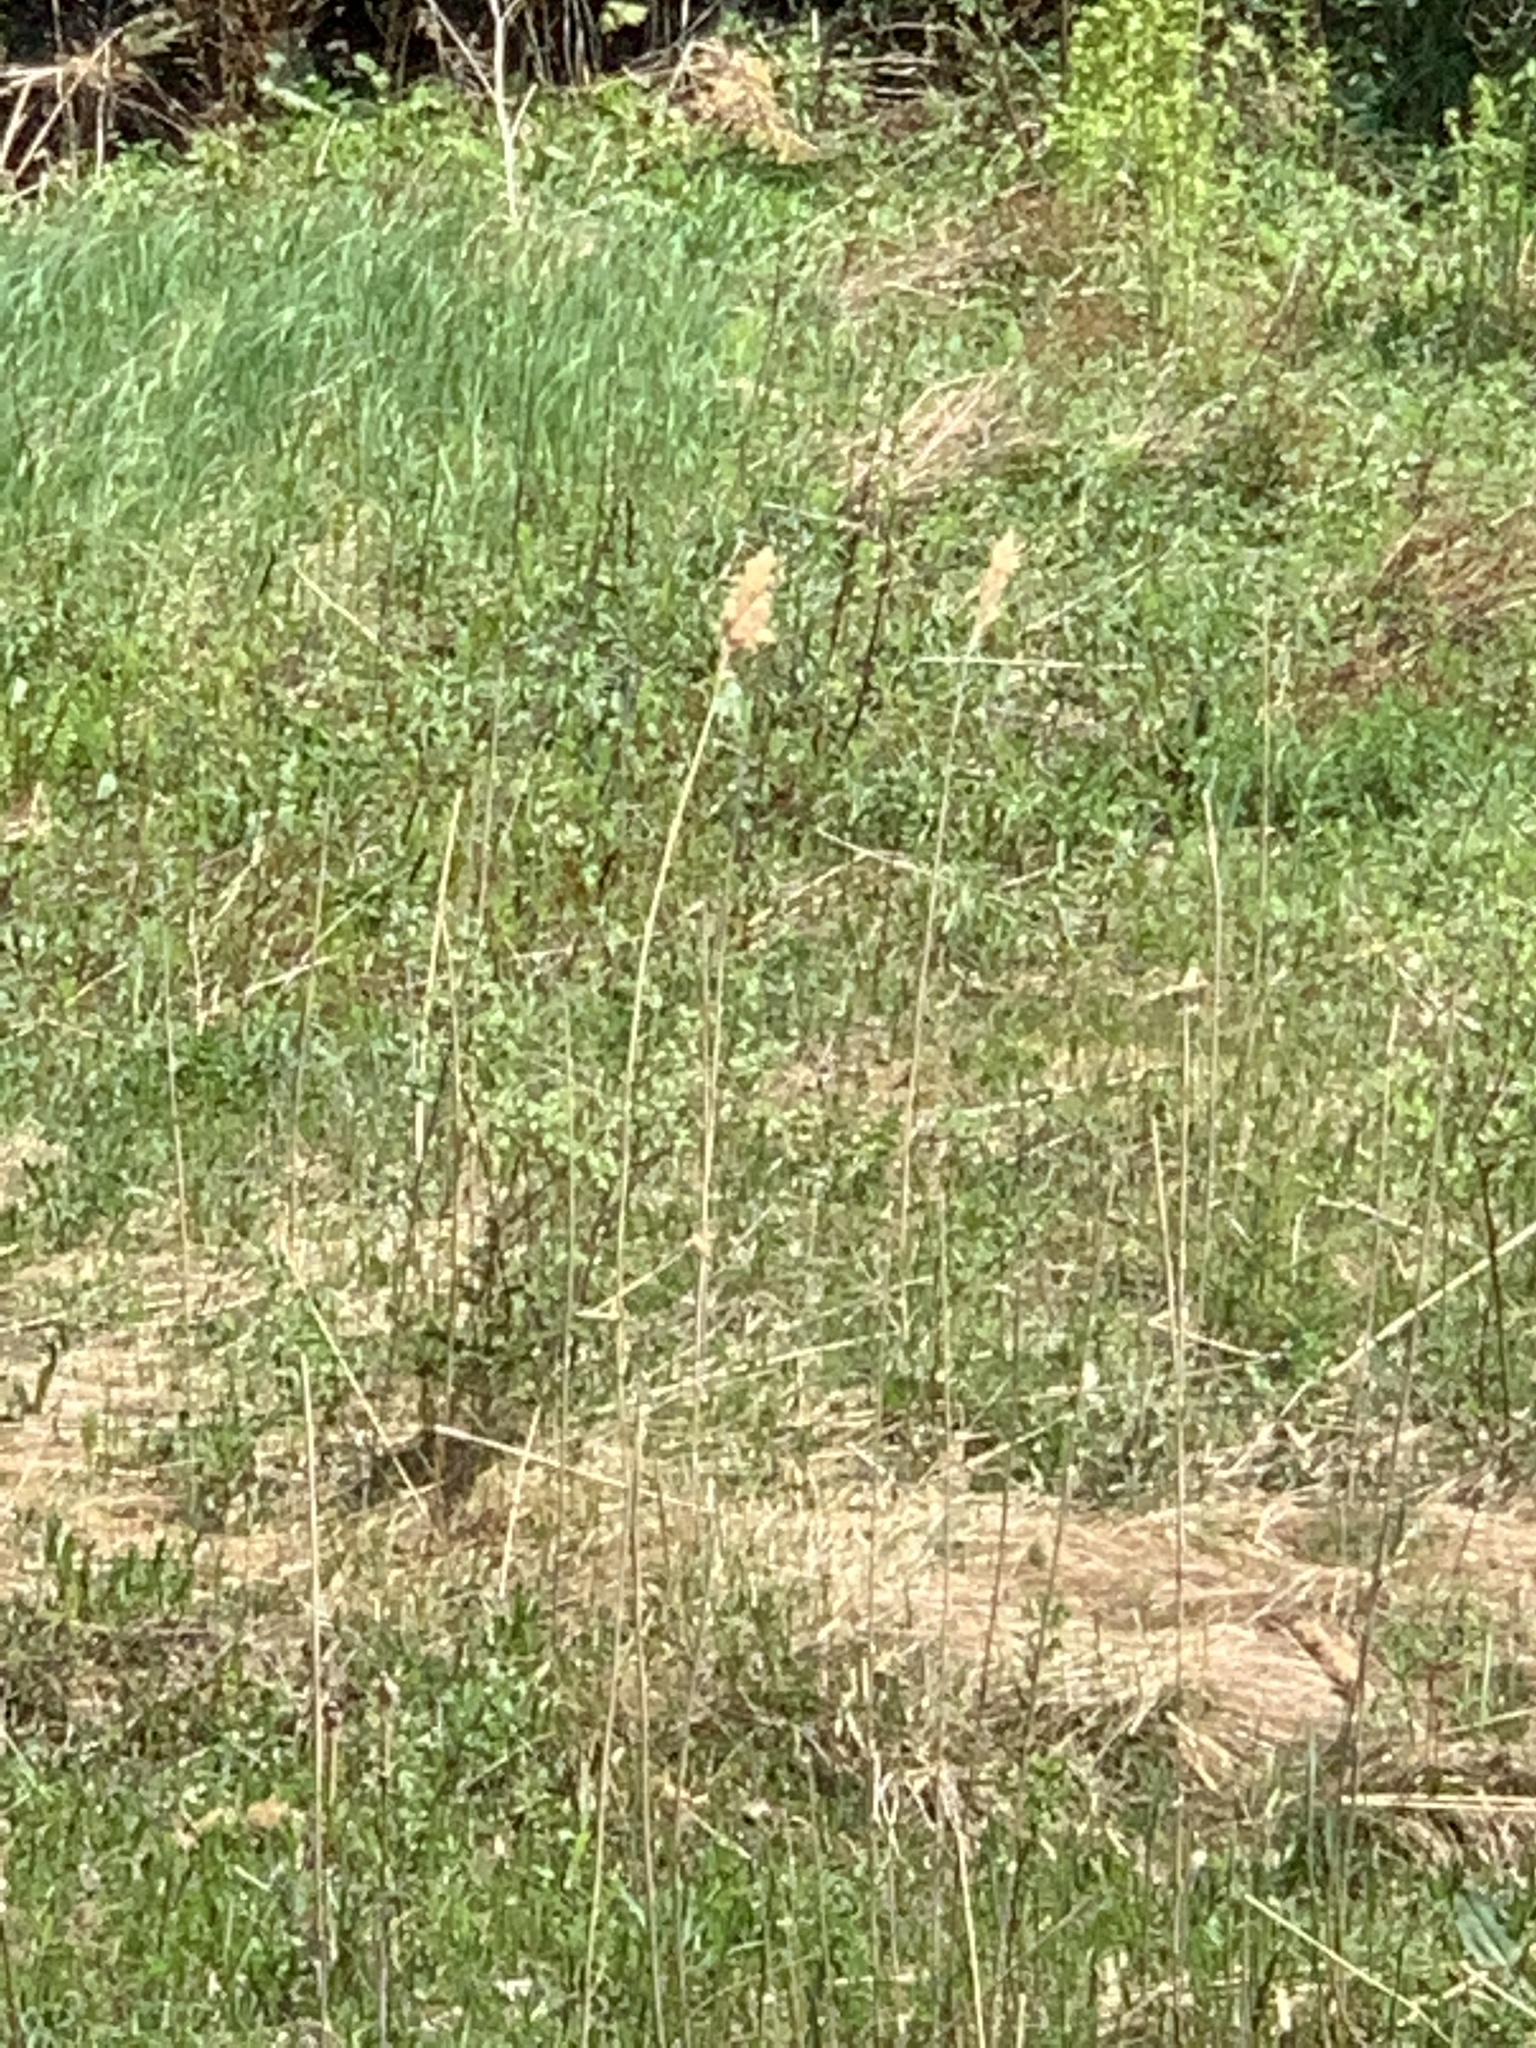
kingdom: Plantae
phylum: Tracheophyta
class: Liliopsida
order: Poales
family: Poaceae
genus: Phragmites
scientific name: Phragmites australis
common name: Common reed
